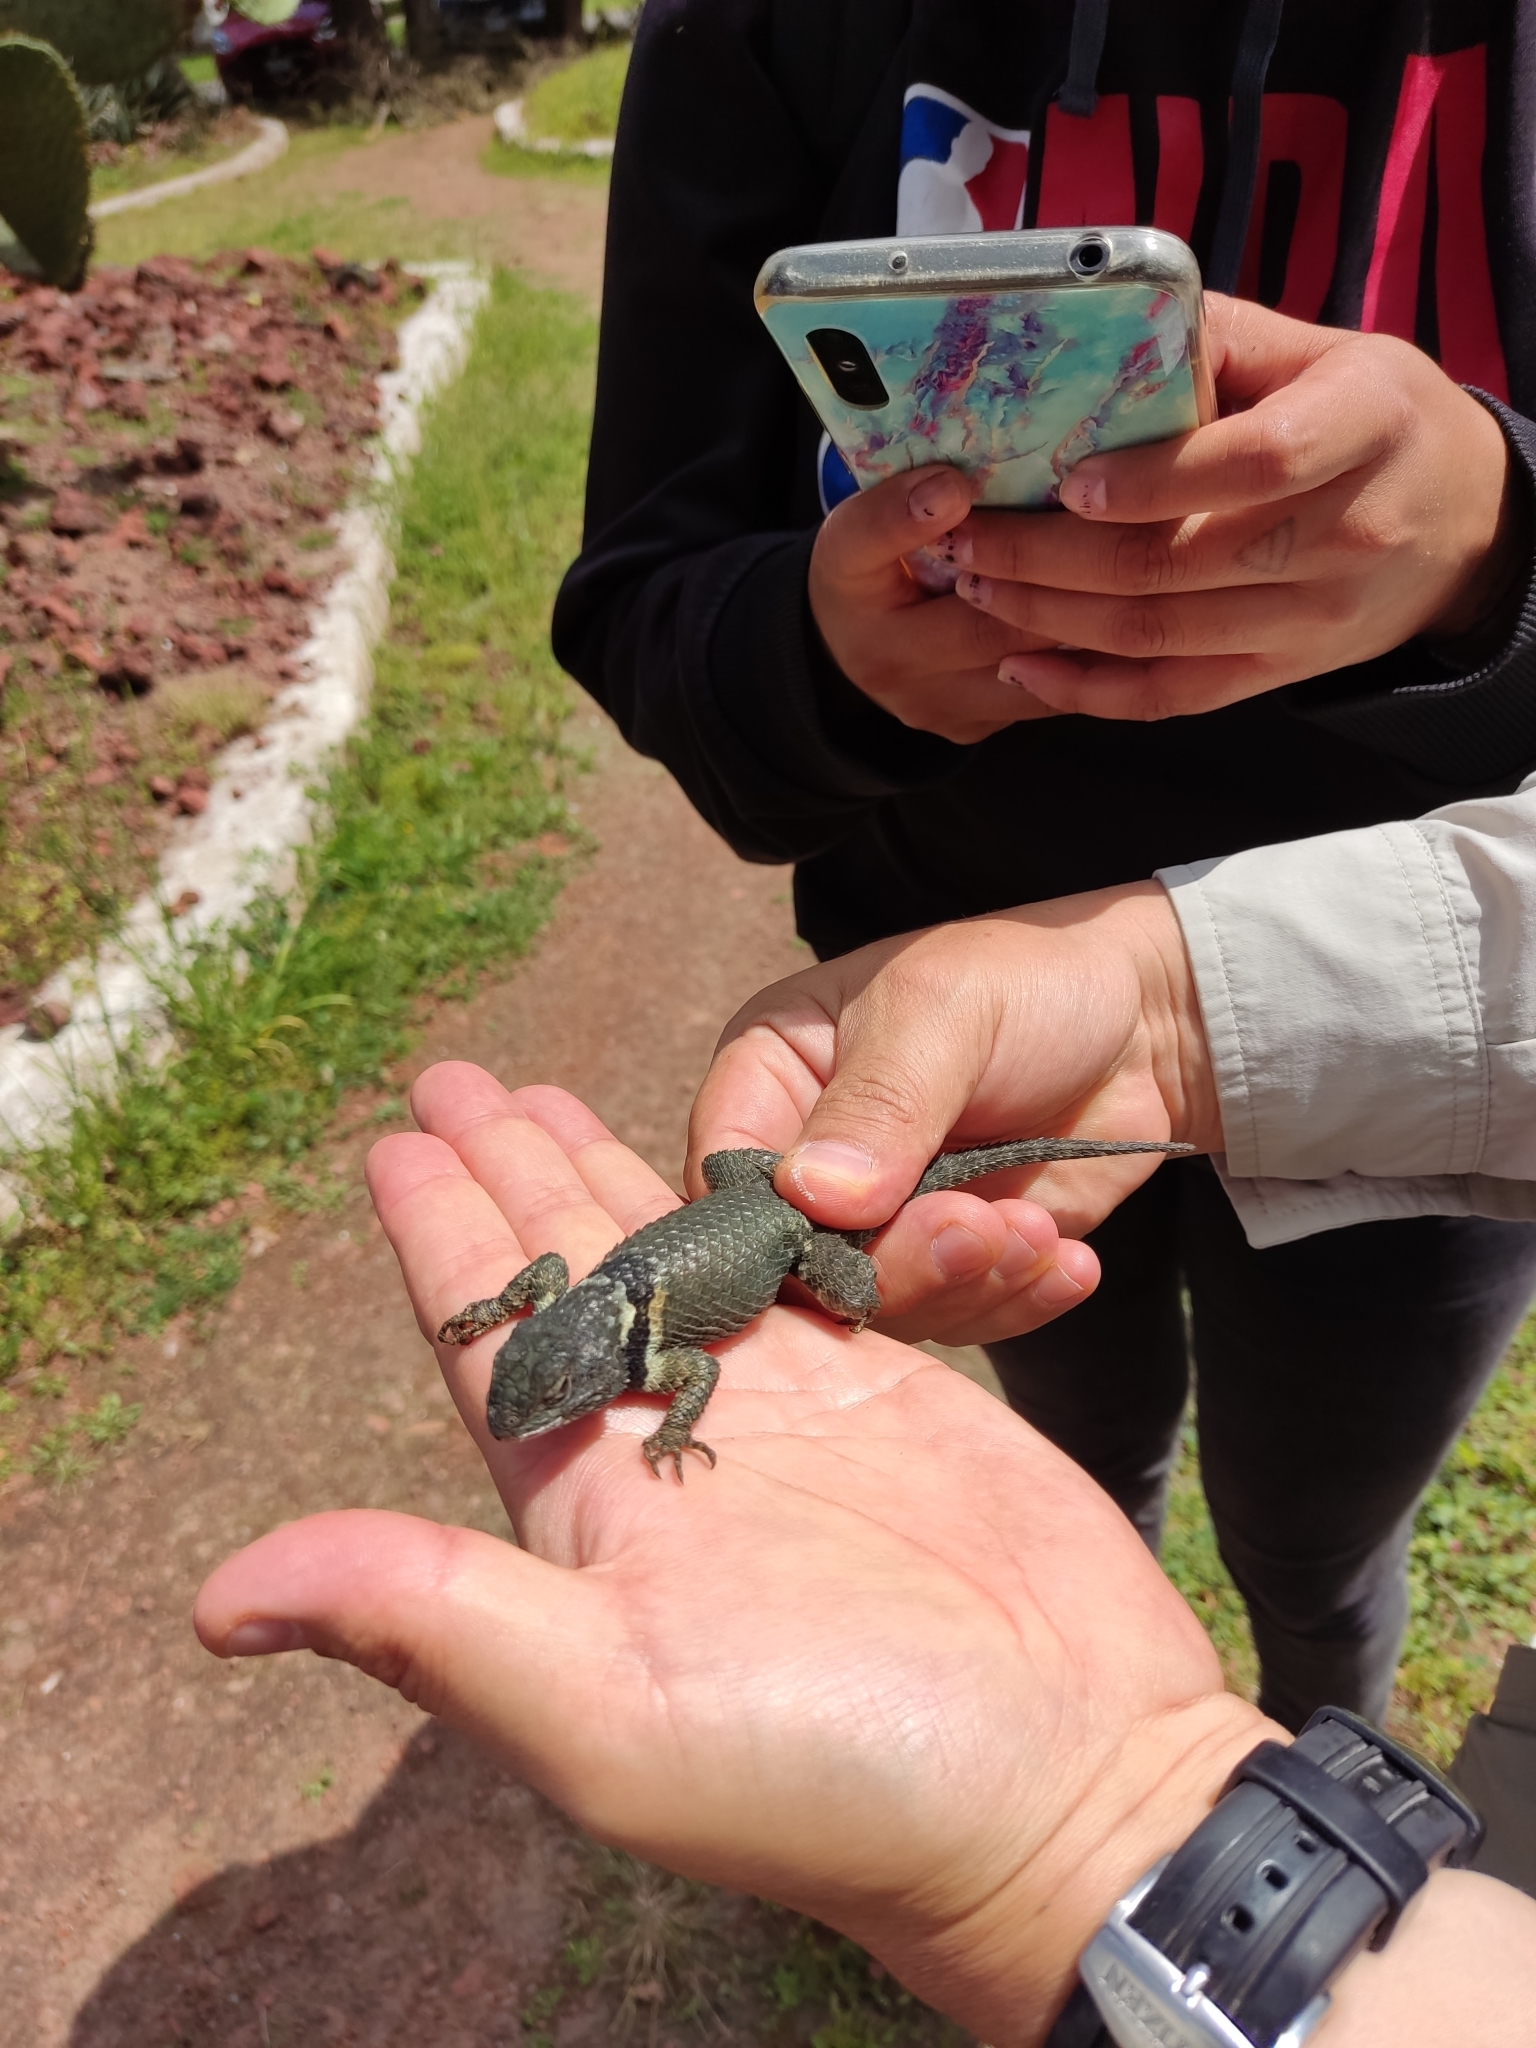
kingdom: Animalia
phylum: Chordata
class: Squamata
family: Phrynosomatidae
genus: Sceloporus
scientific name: Sceloporus torquatus
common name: Central plateau torquate lizard [melanogaster]
